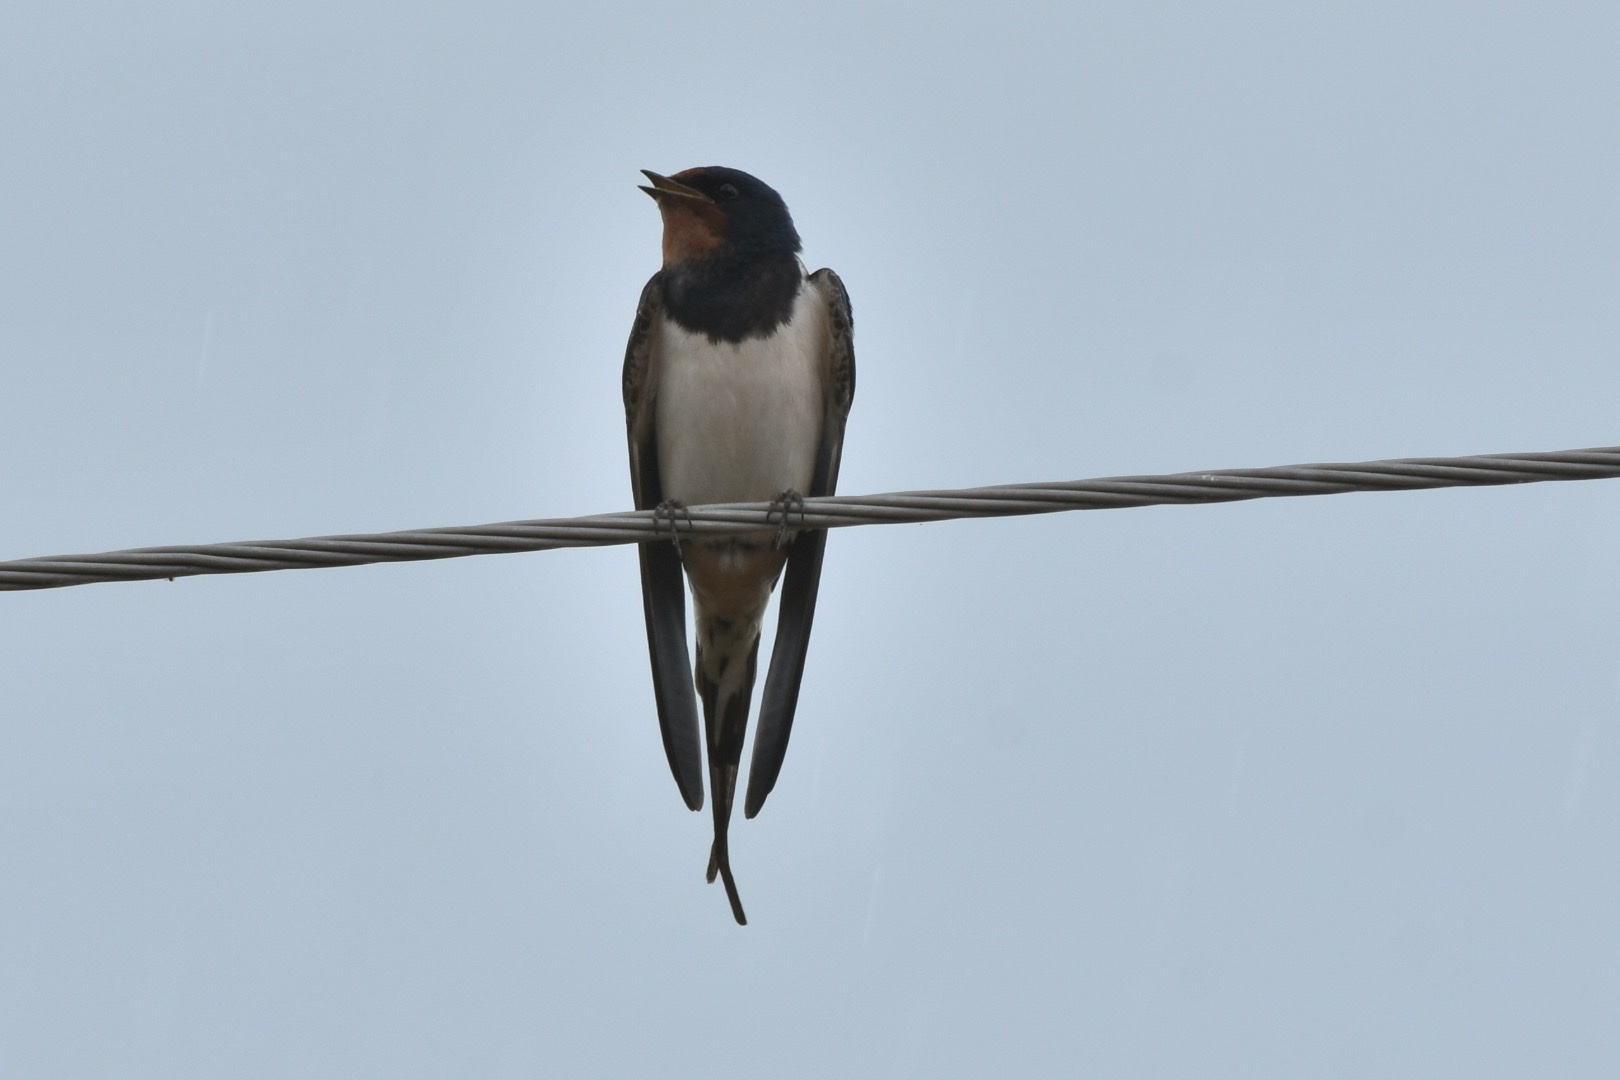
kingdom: Animalia
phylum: Chordata
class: Aves
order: Passeriformes
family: Hirundinidae
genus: Hirundo
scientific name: Hirundo rustica
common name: Barn swallow
